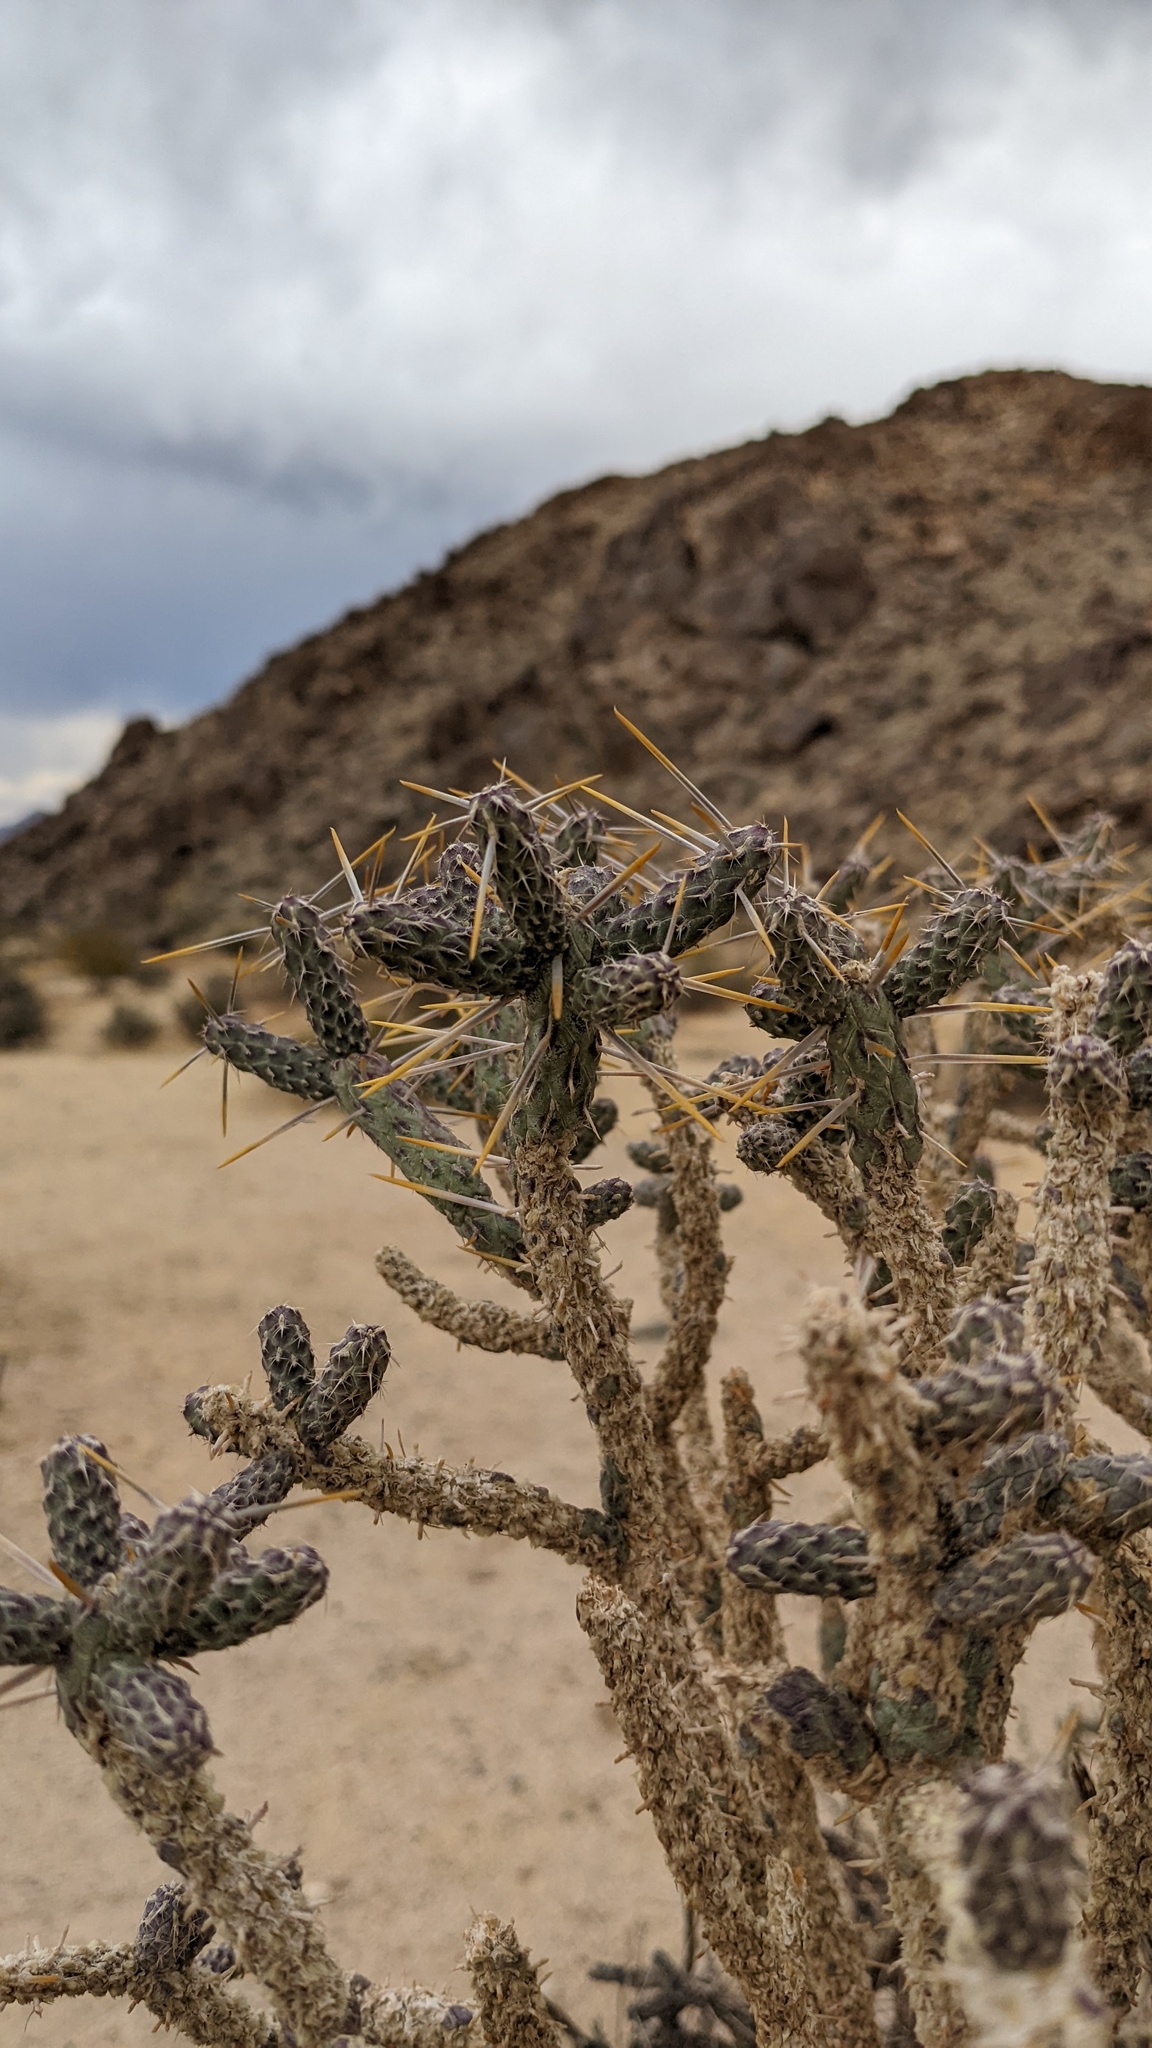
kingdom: Plantae
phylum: Tracheophyta
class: Magnoliopsida
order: Caryophyllales
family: Cactaceae
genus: Cylindropuntia
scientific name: Cylindropuntia ramosissima
